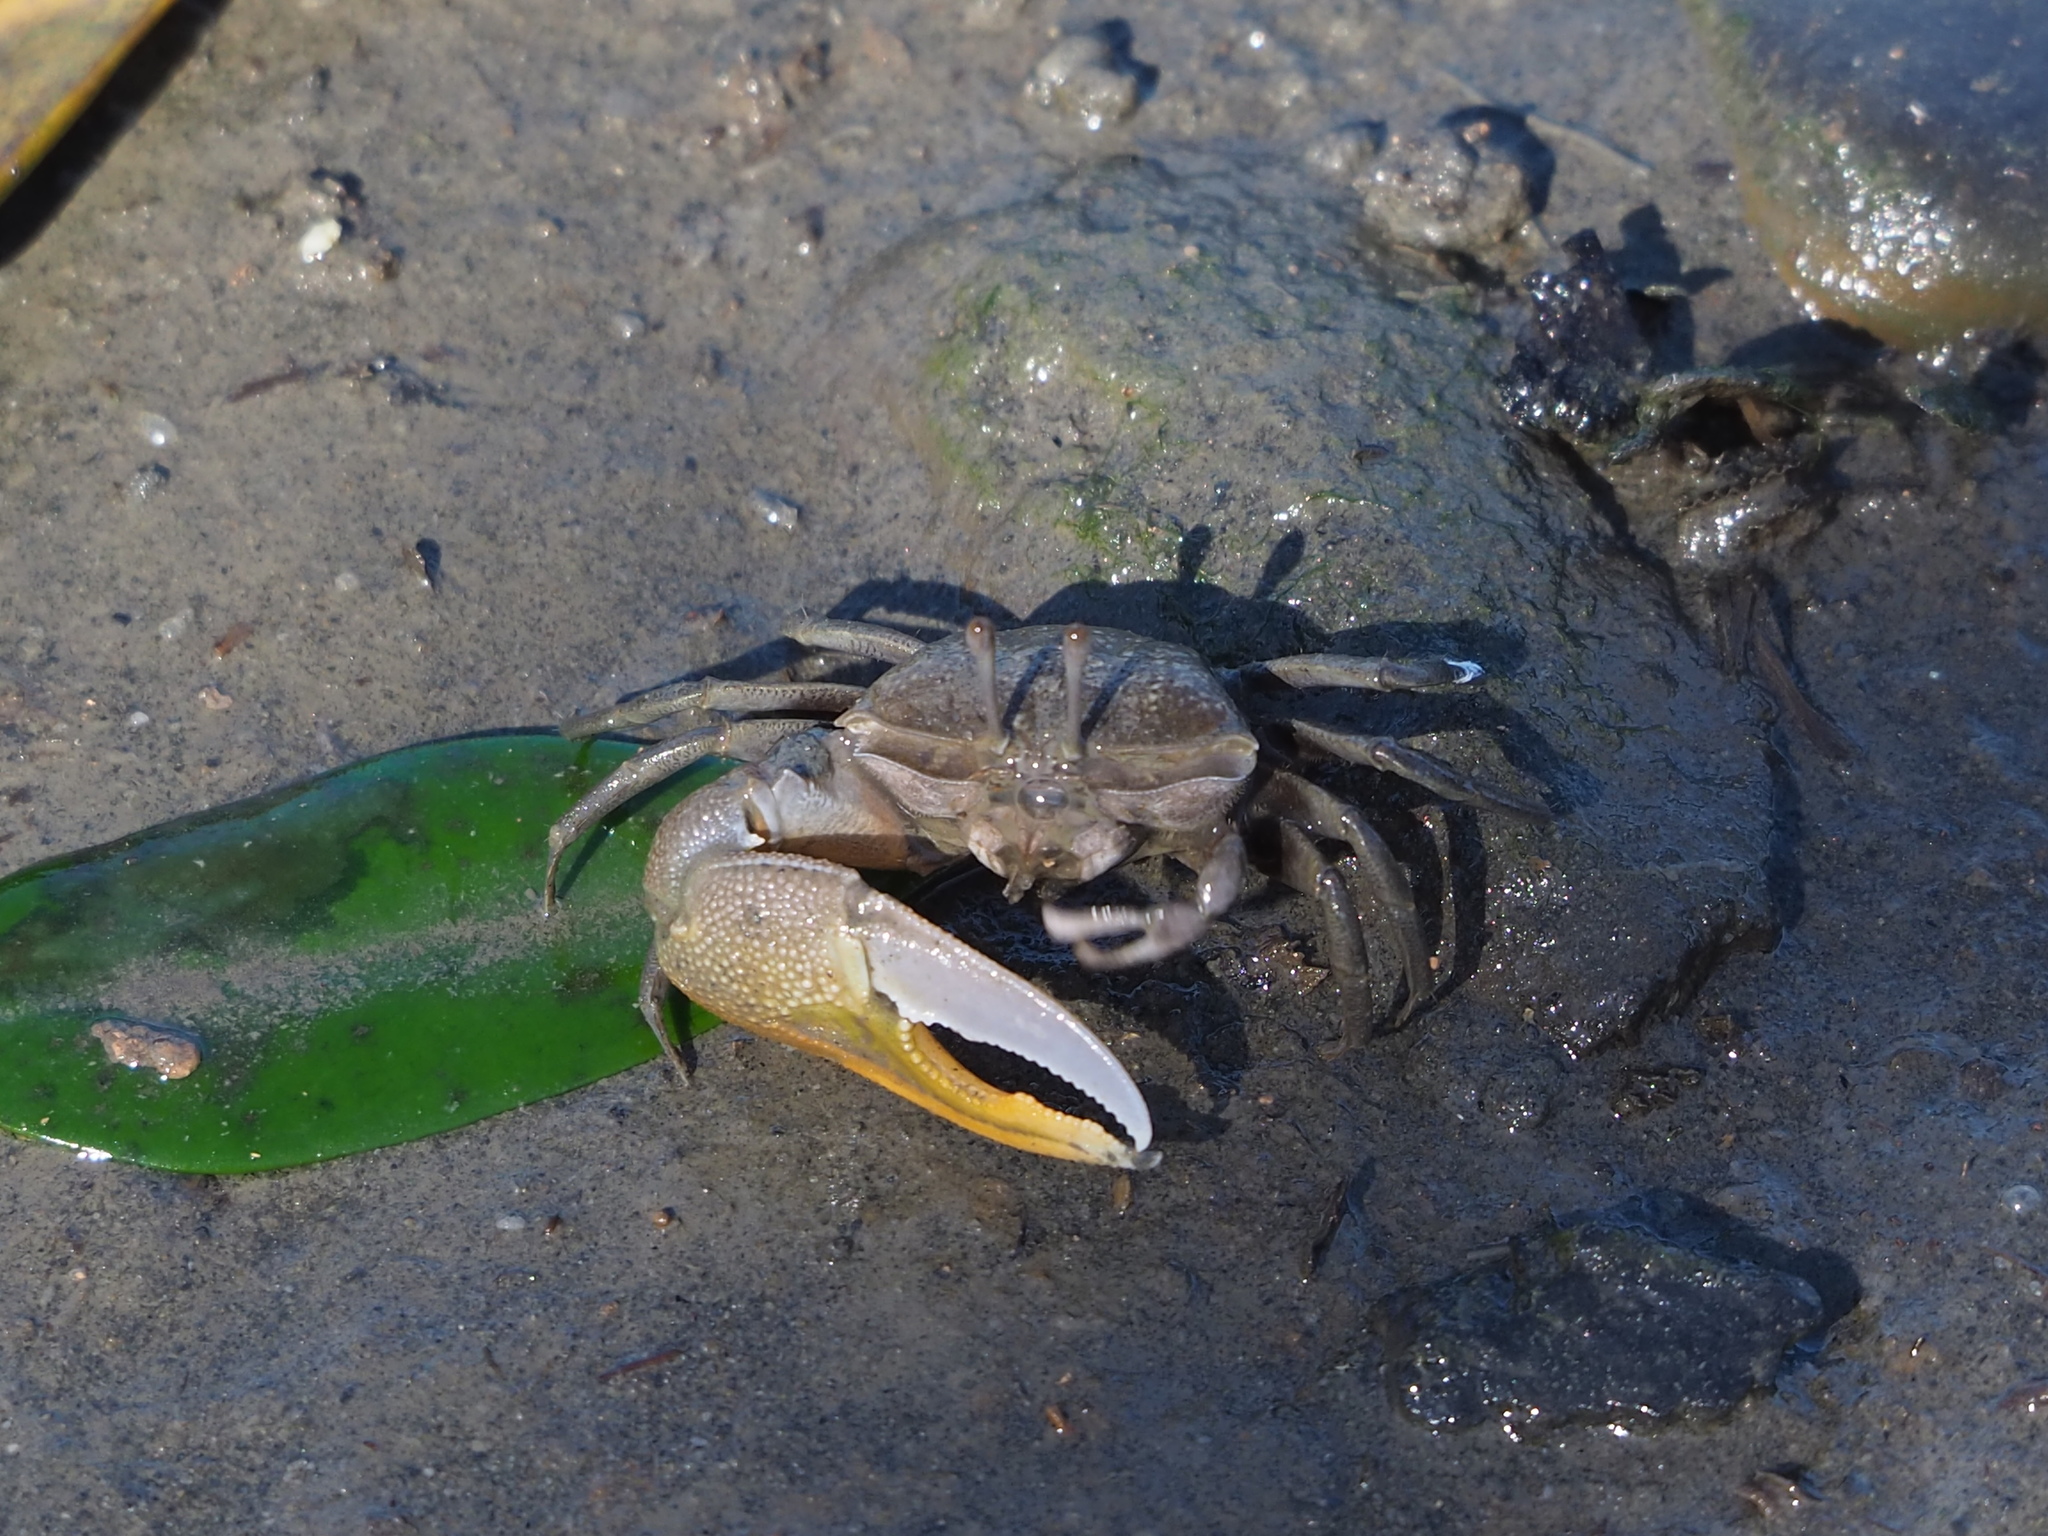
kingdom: Animalia
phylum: Arthropoda
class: Malacostraca
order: Decapoda
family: Ocypodidae
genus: Gelasimus
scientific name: Gelasimus borealis
